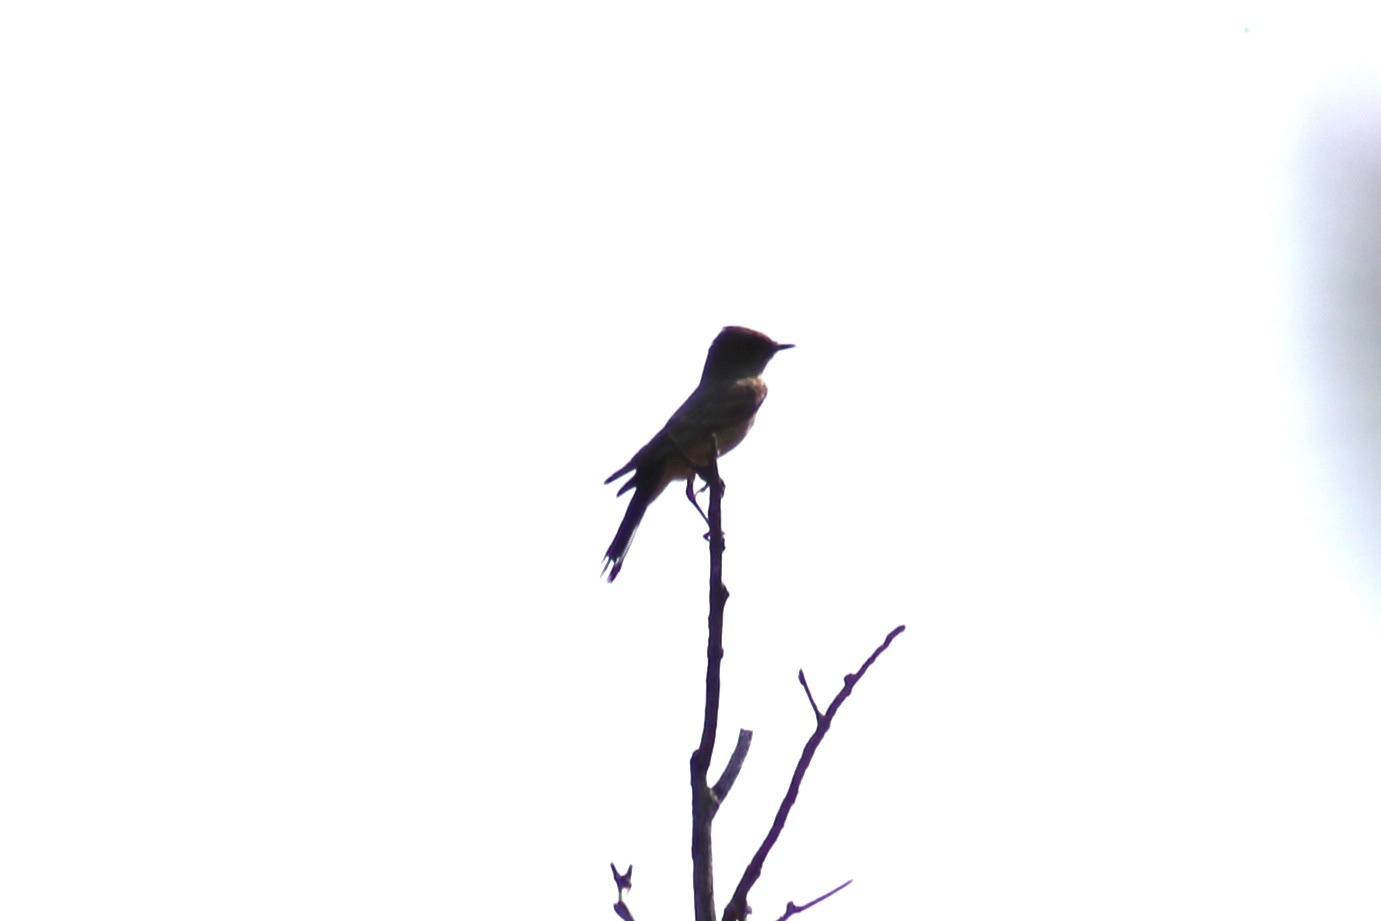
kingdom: Animalia
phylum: Chordata
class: Aves
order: Passeriformes
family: Tyrannidae
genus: Sayornis
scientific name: Sayornis saya
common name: Say's phoebe
